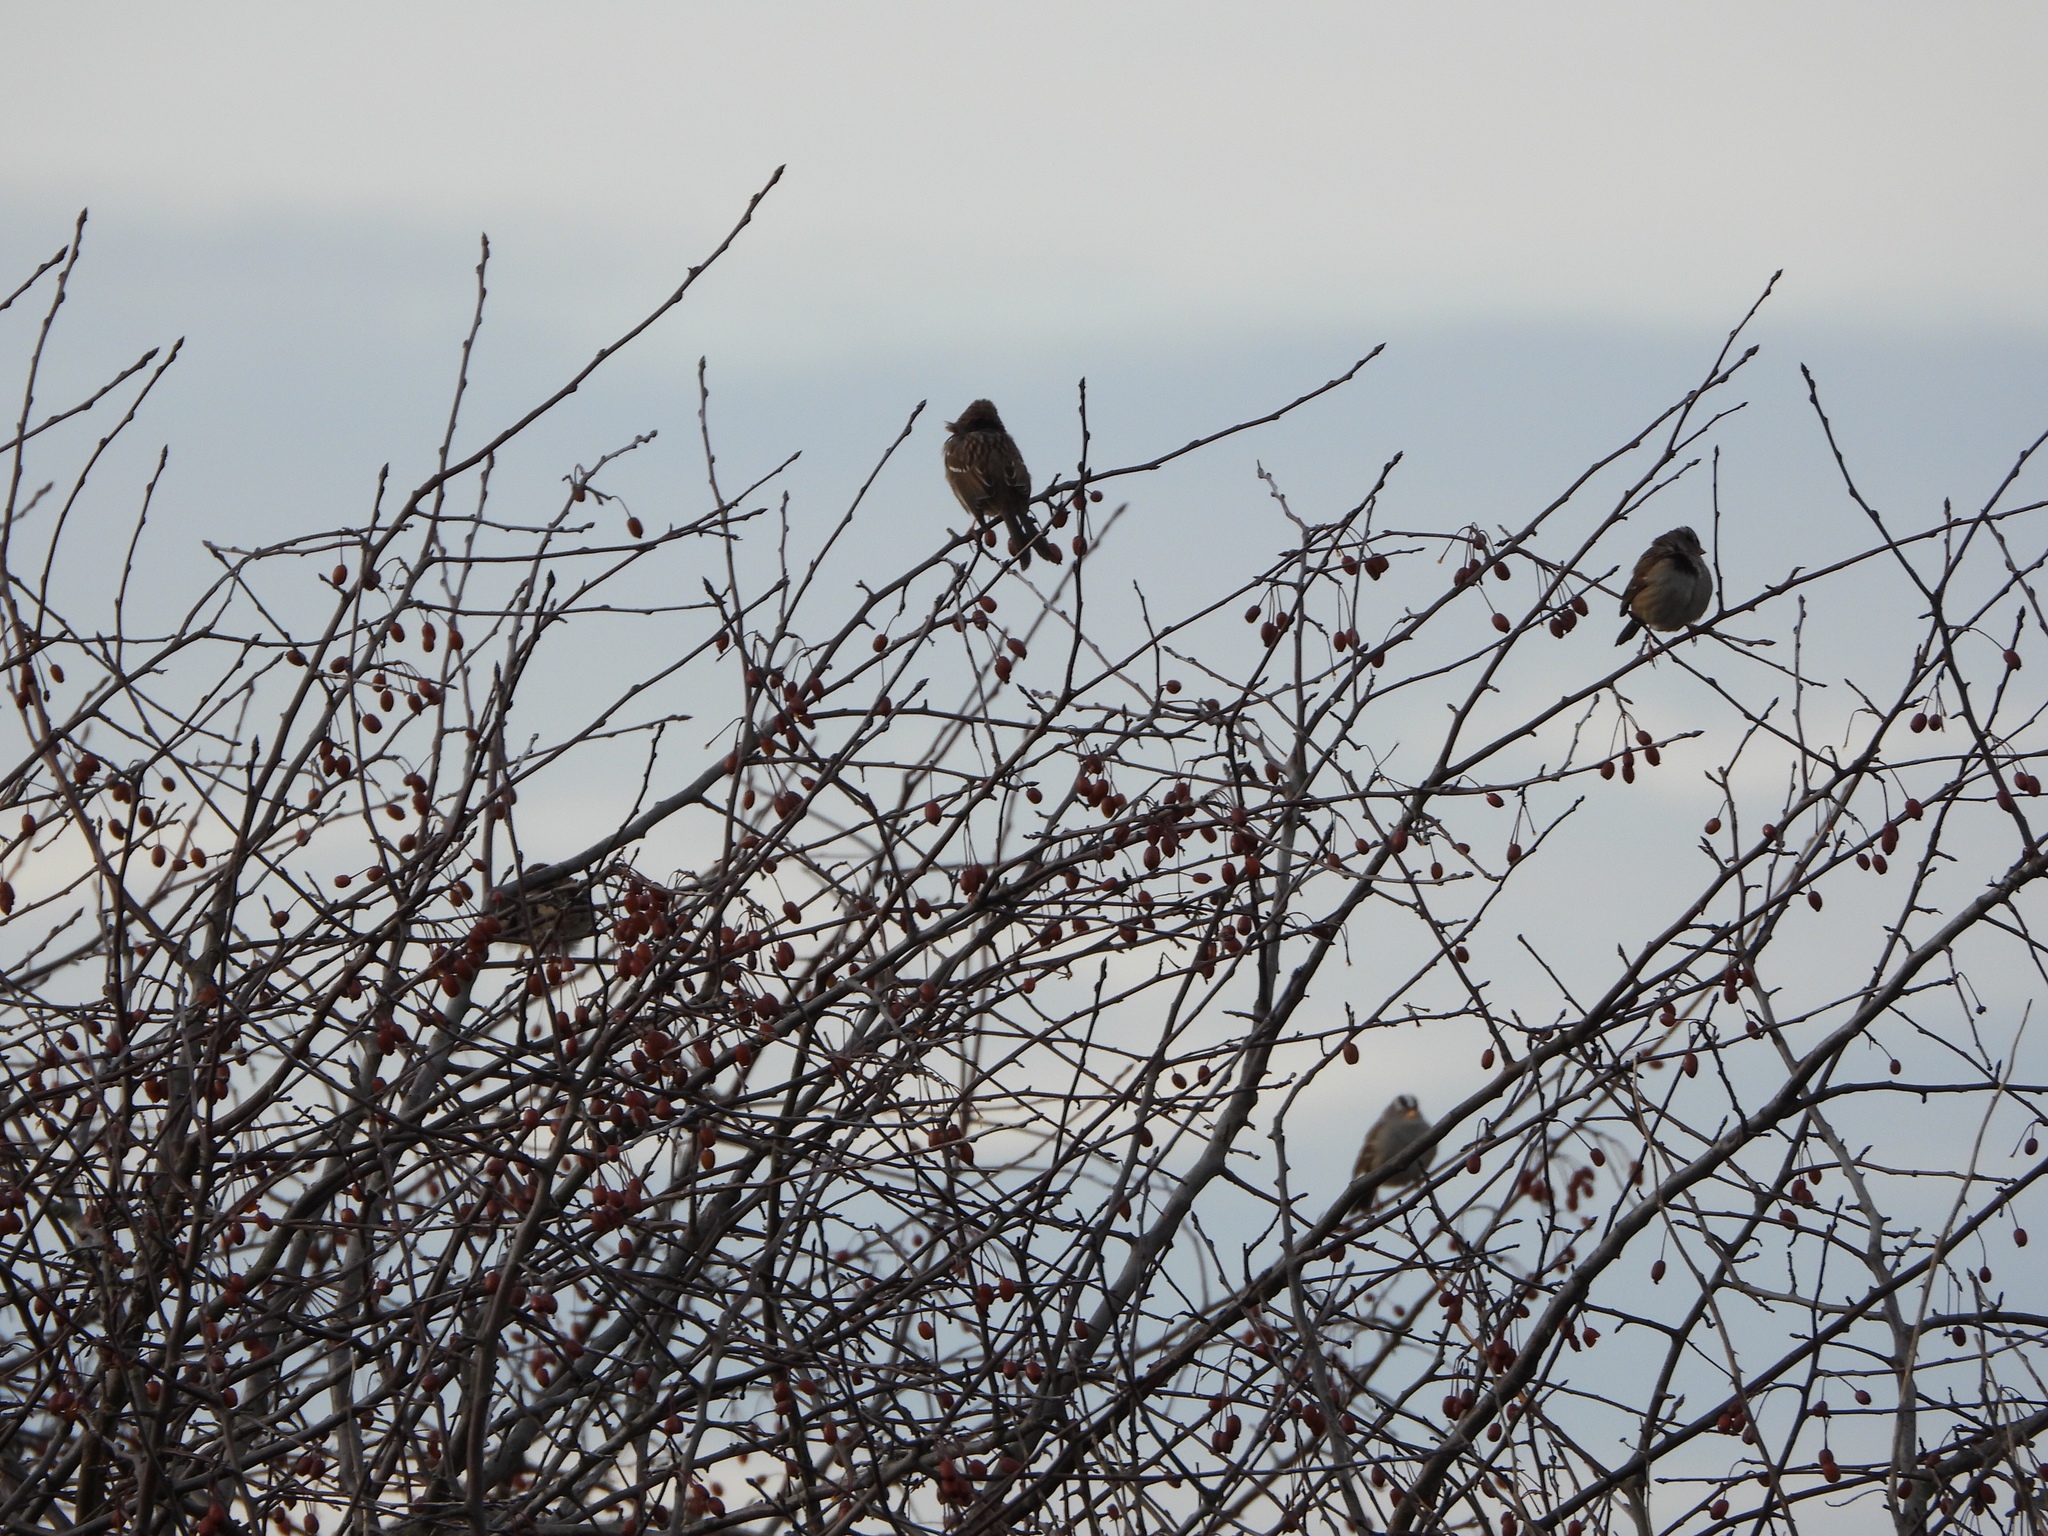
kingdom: Animalia
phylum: Chordata
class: Aves
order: Passeriformes
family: Passerellidae
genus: Zonotrichia
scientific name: Zonotrichia leucophrys
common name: White-crowned sparrow
